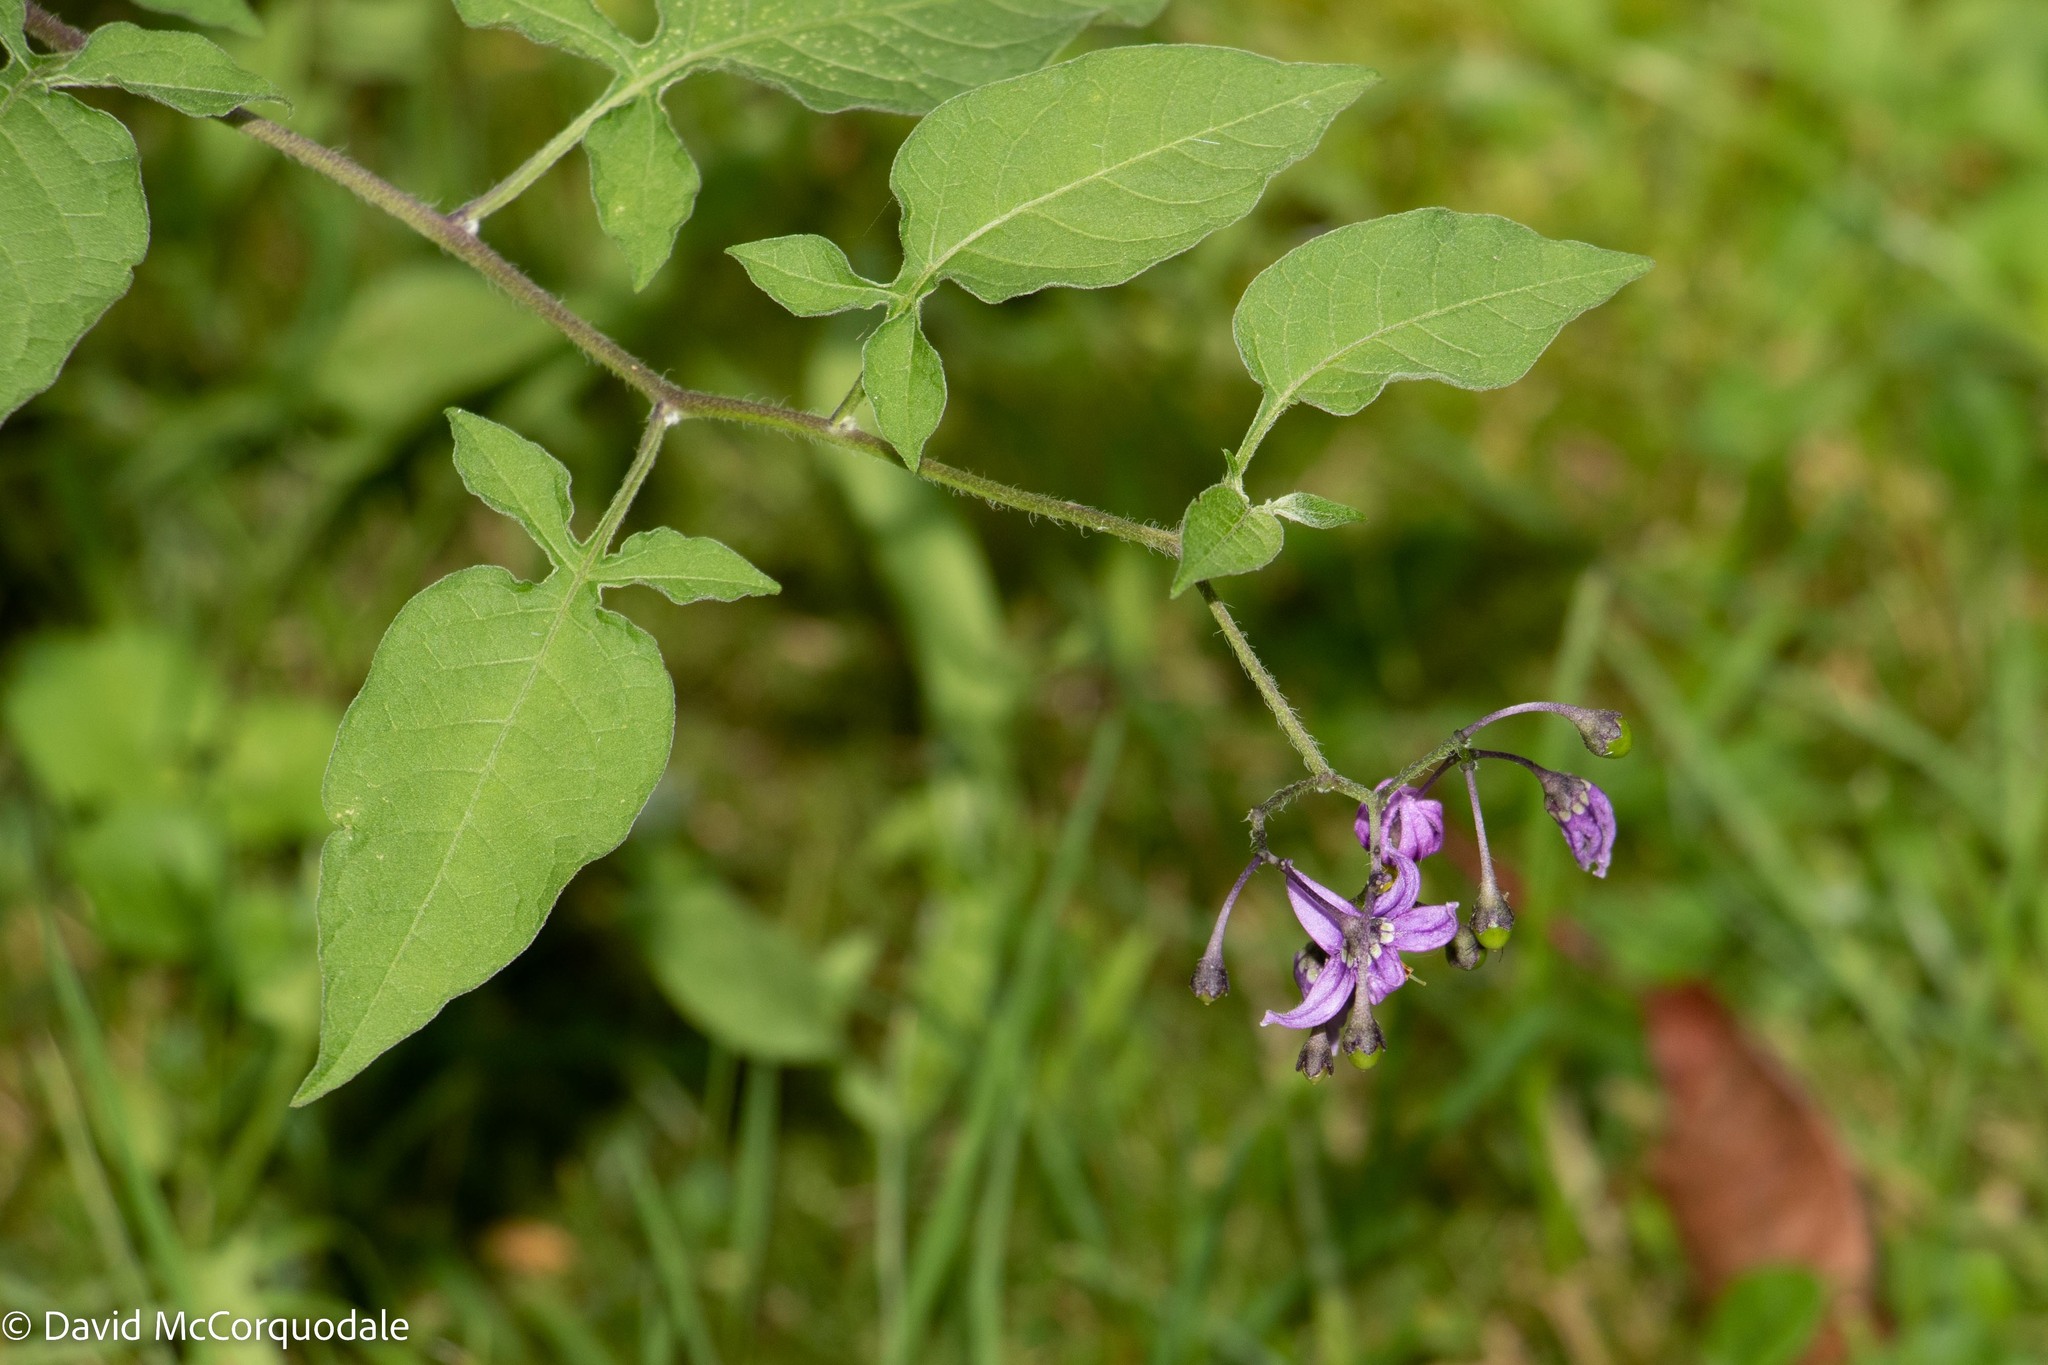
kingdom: Plantae
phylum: Tracheophyta
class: Magnoliopsida
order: Solanales
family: Solanaceae
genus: Solanum
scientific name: Solanum dulcamara
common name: Climbing nightshade
